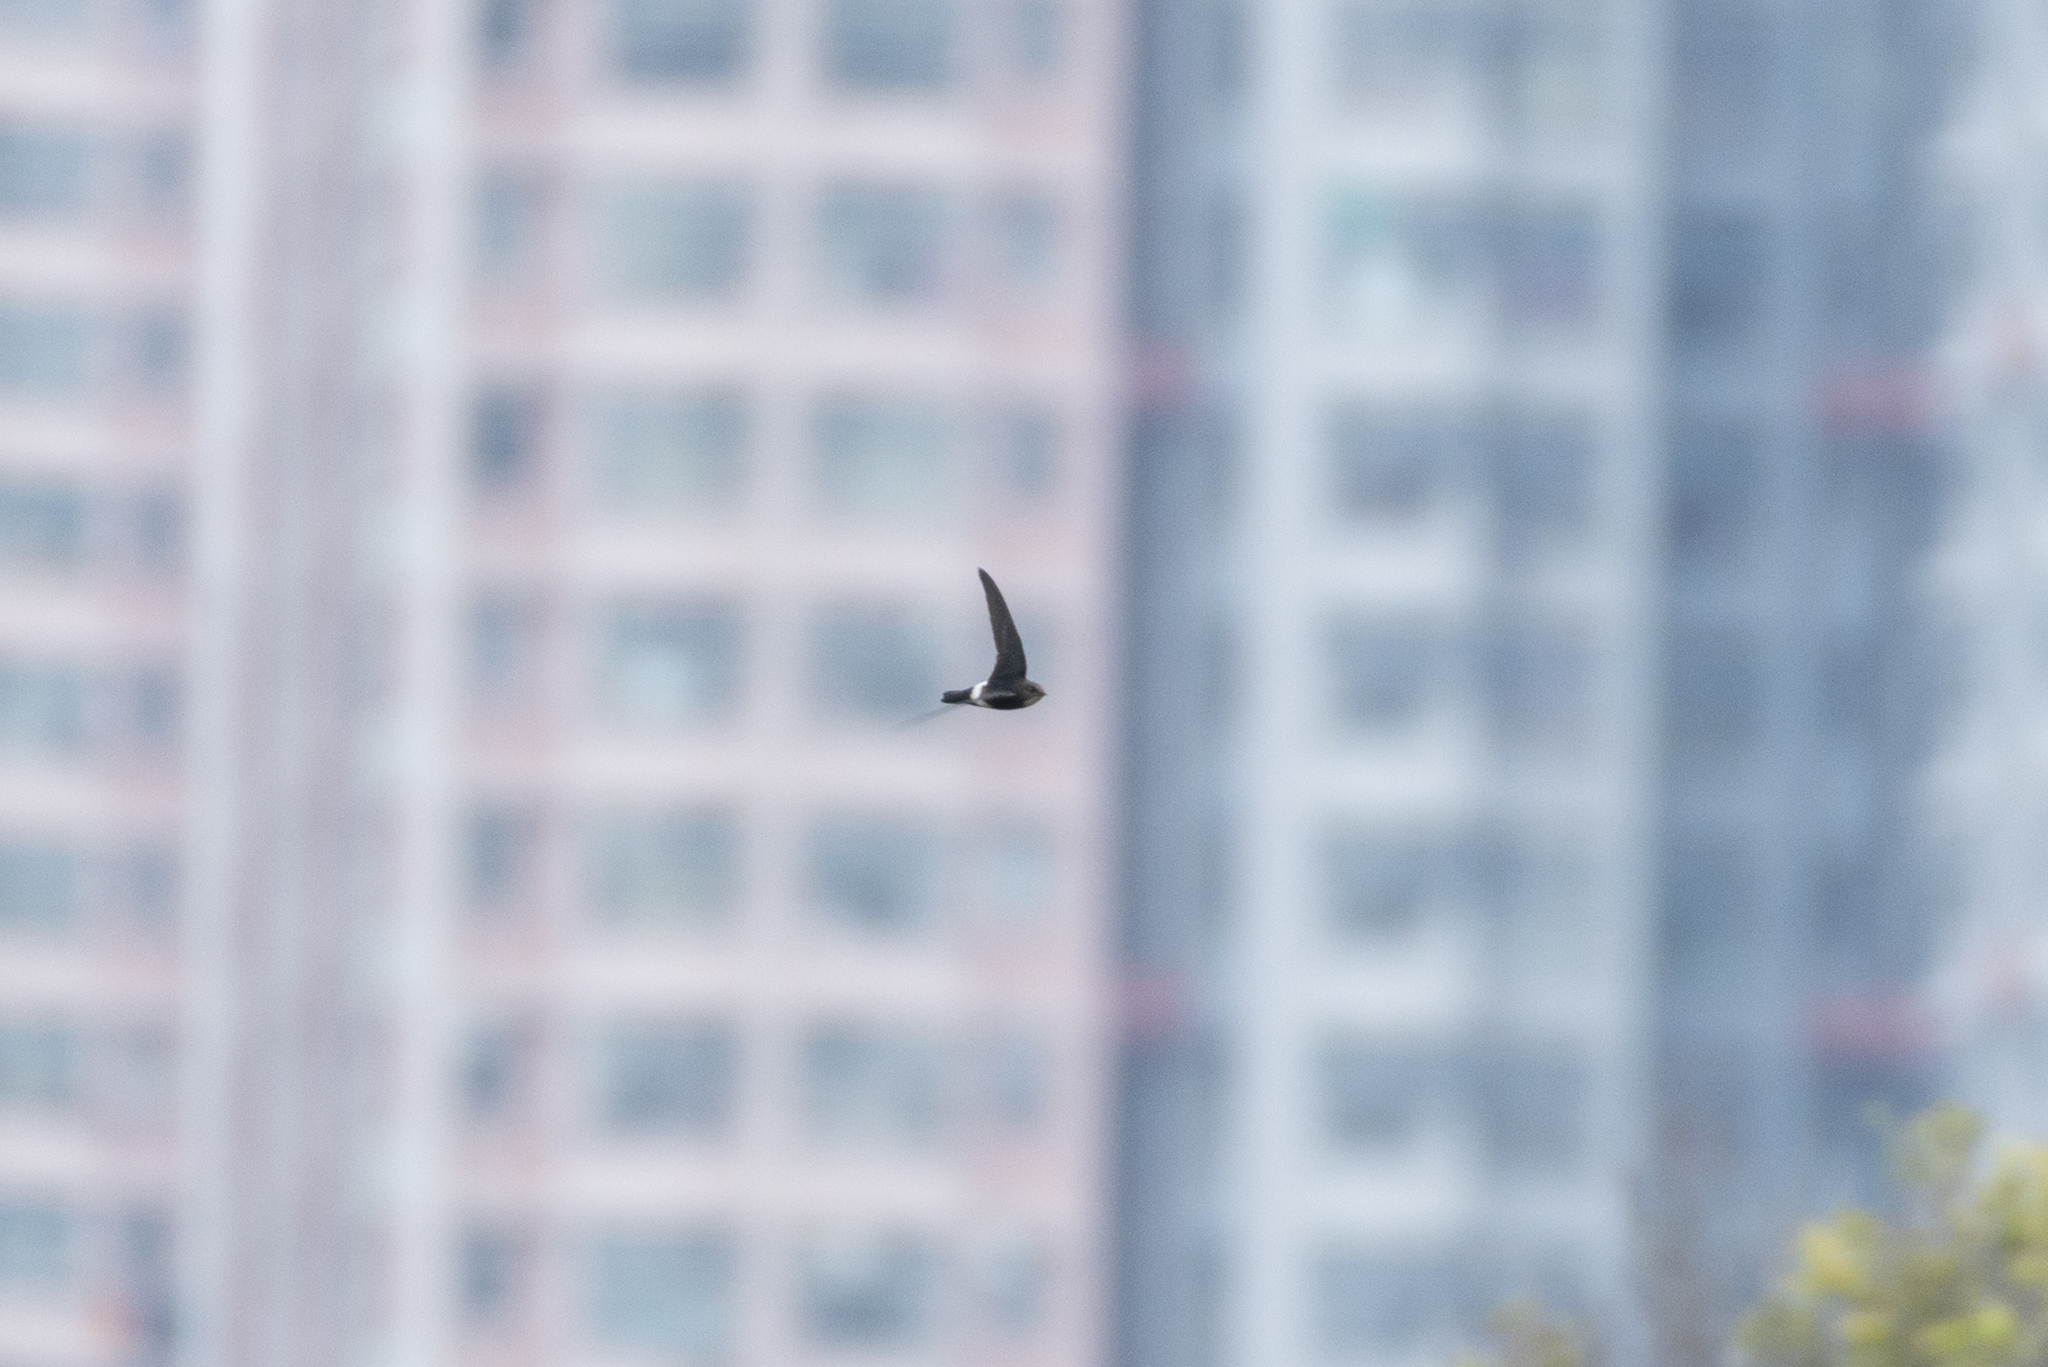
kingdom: Animalia
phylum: Chordata
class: Aves
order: Apodiformes
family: Apodidae
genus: Apus
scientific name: Apus nipalensis
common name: House swift
